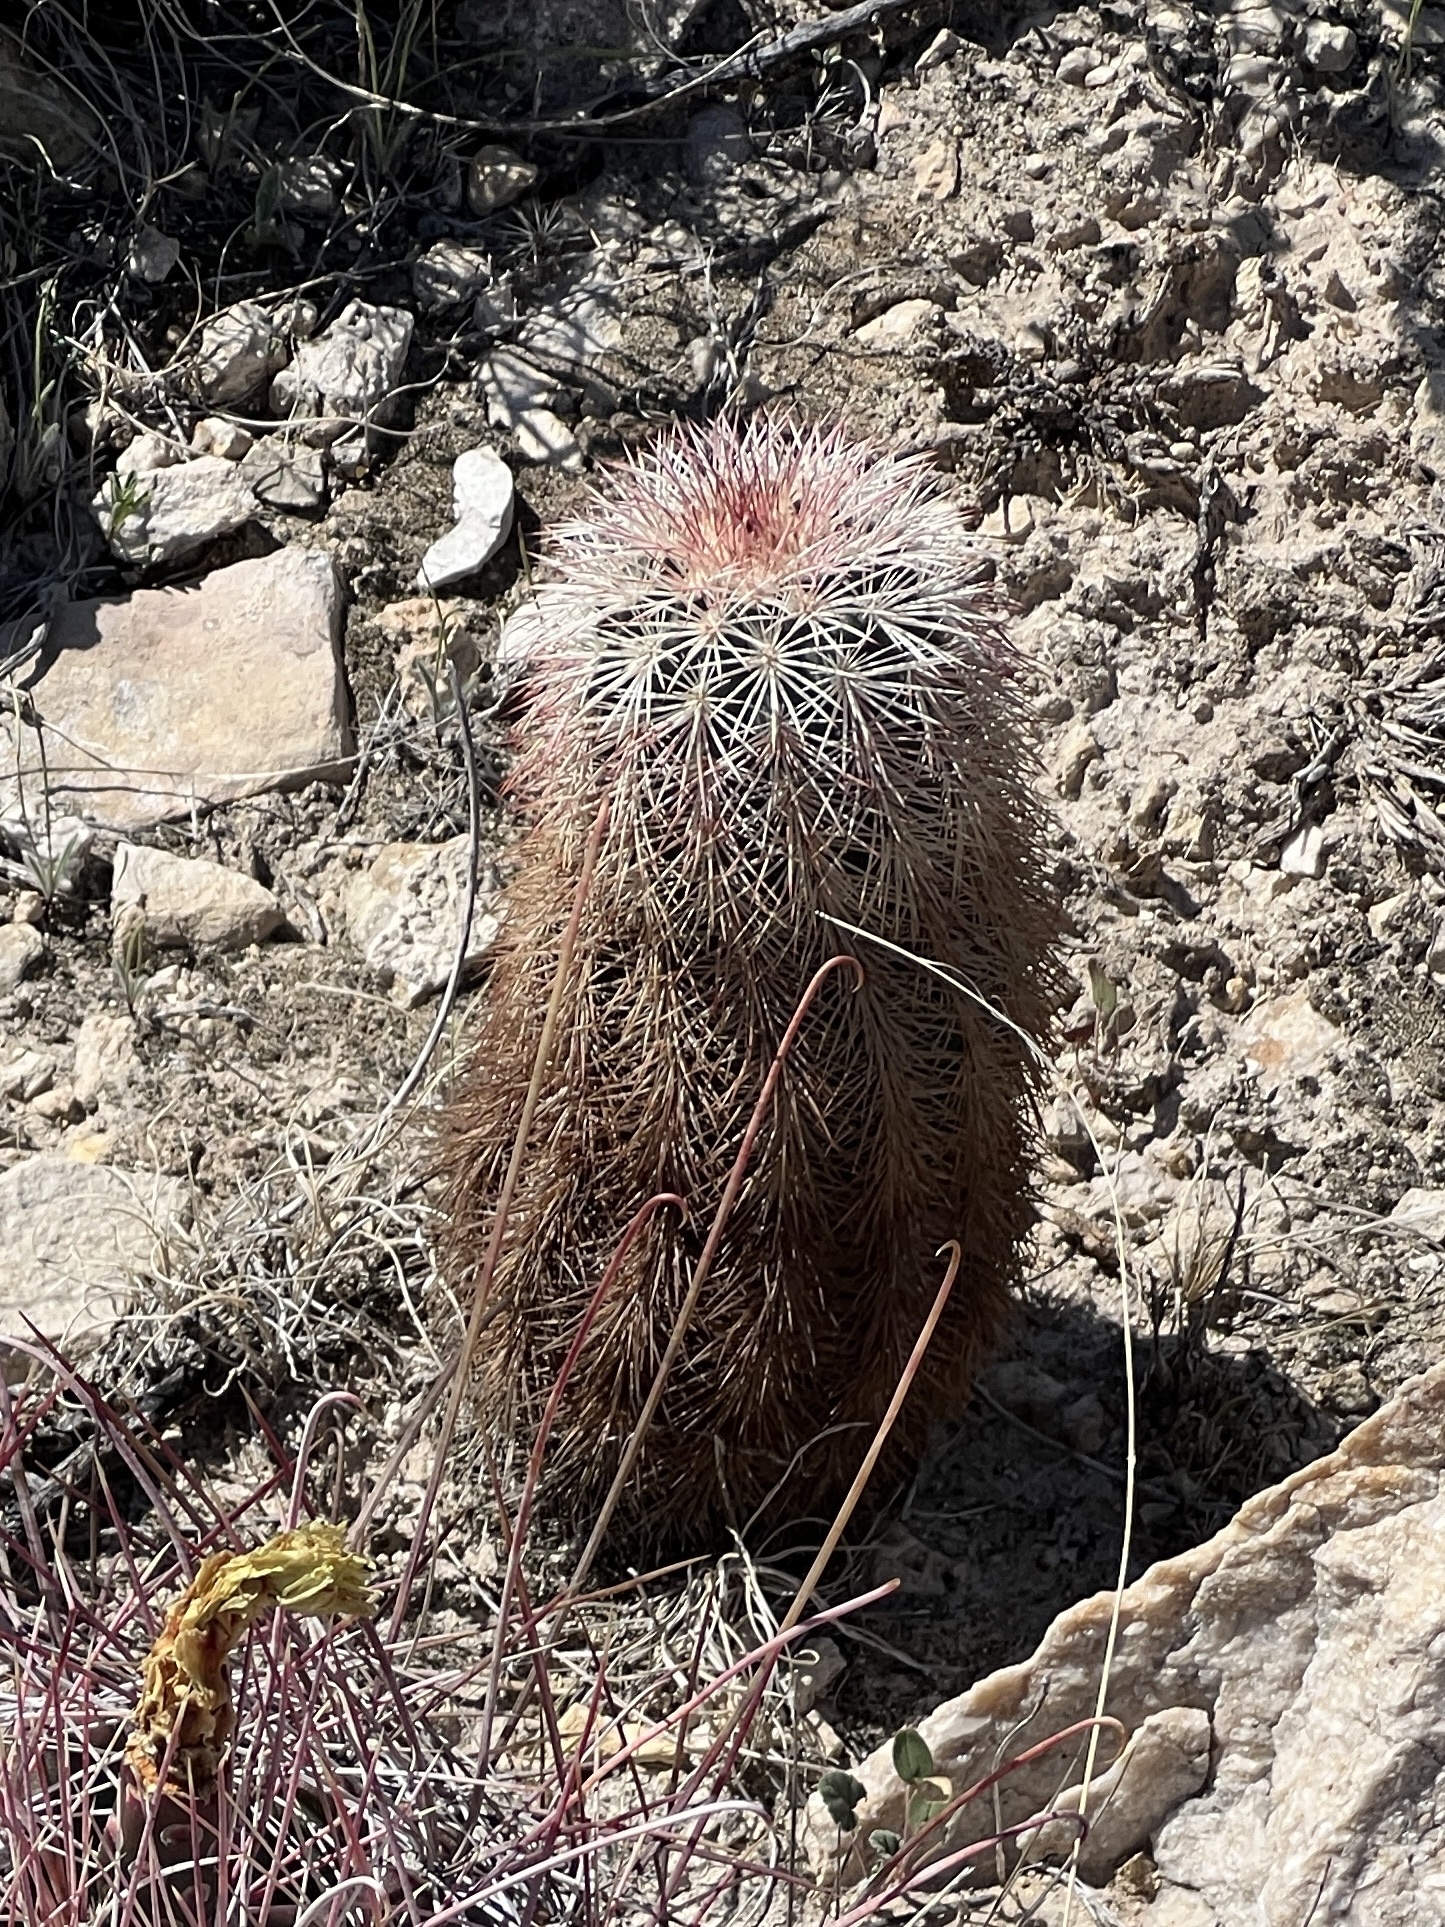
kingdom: Plantae
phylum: Tracheophyta
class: Magnoliopsida
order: Caryophyllales
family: Cactaceae
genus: Echinocereus
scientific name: Echinocereus dasyacanthus
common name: Spiny hedgehog cactus
